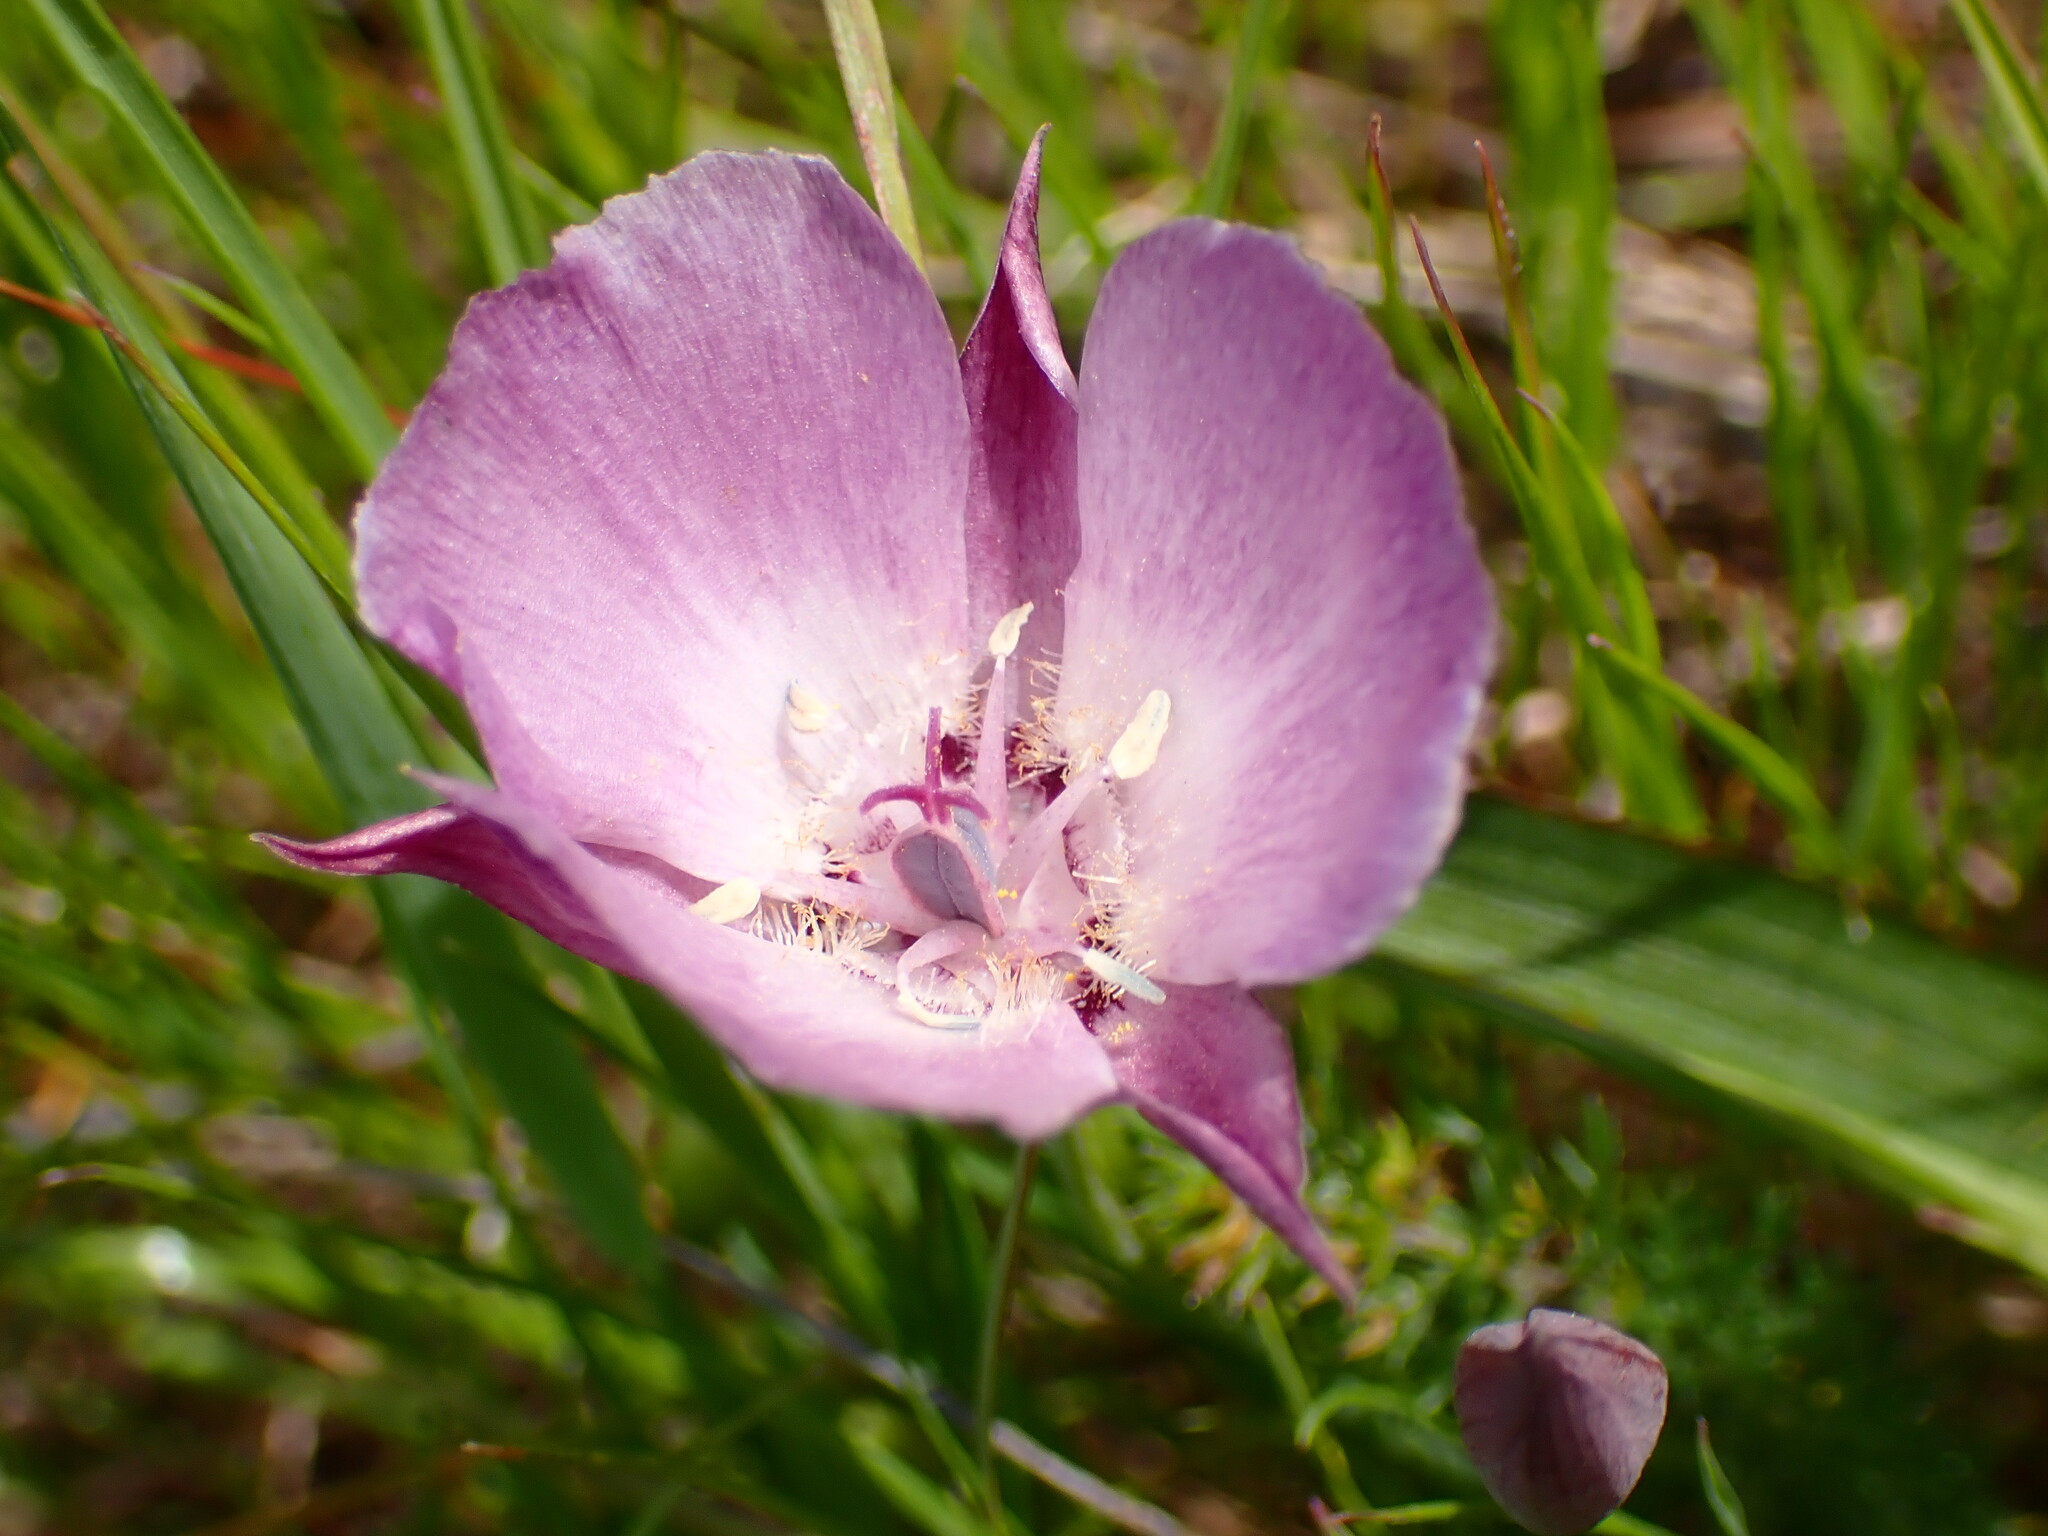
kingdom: Plantae
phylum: Tracheophyta
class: Liliopsida
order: Liliales
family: Liliaceae
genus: Calochortus
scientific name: Calochortus umbellatus
